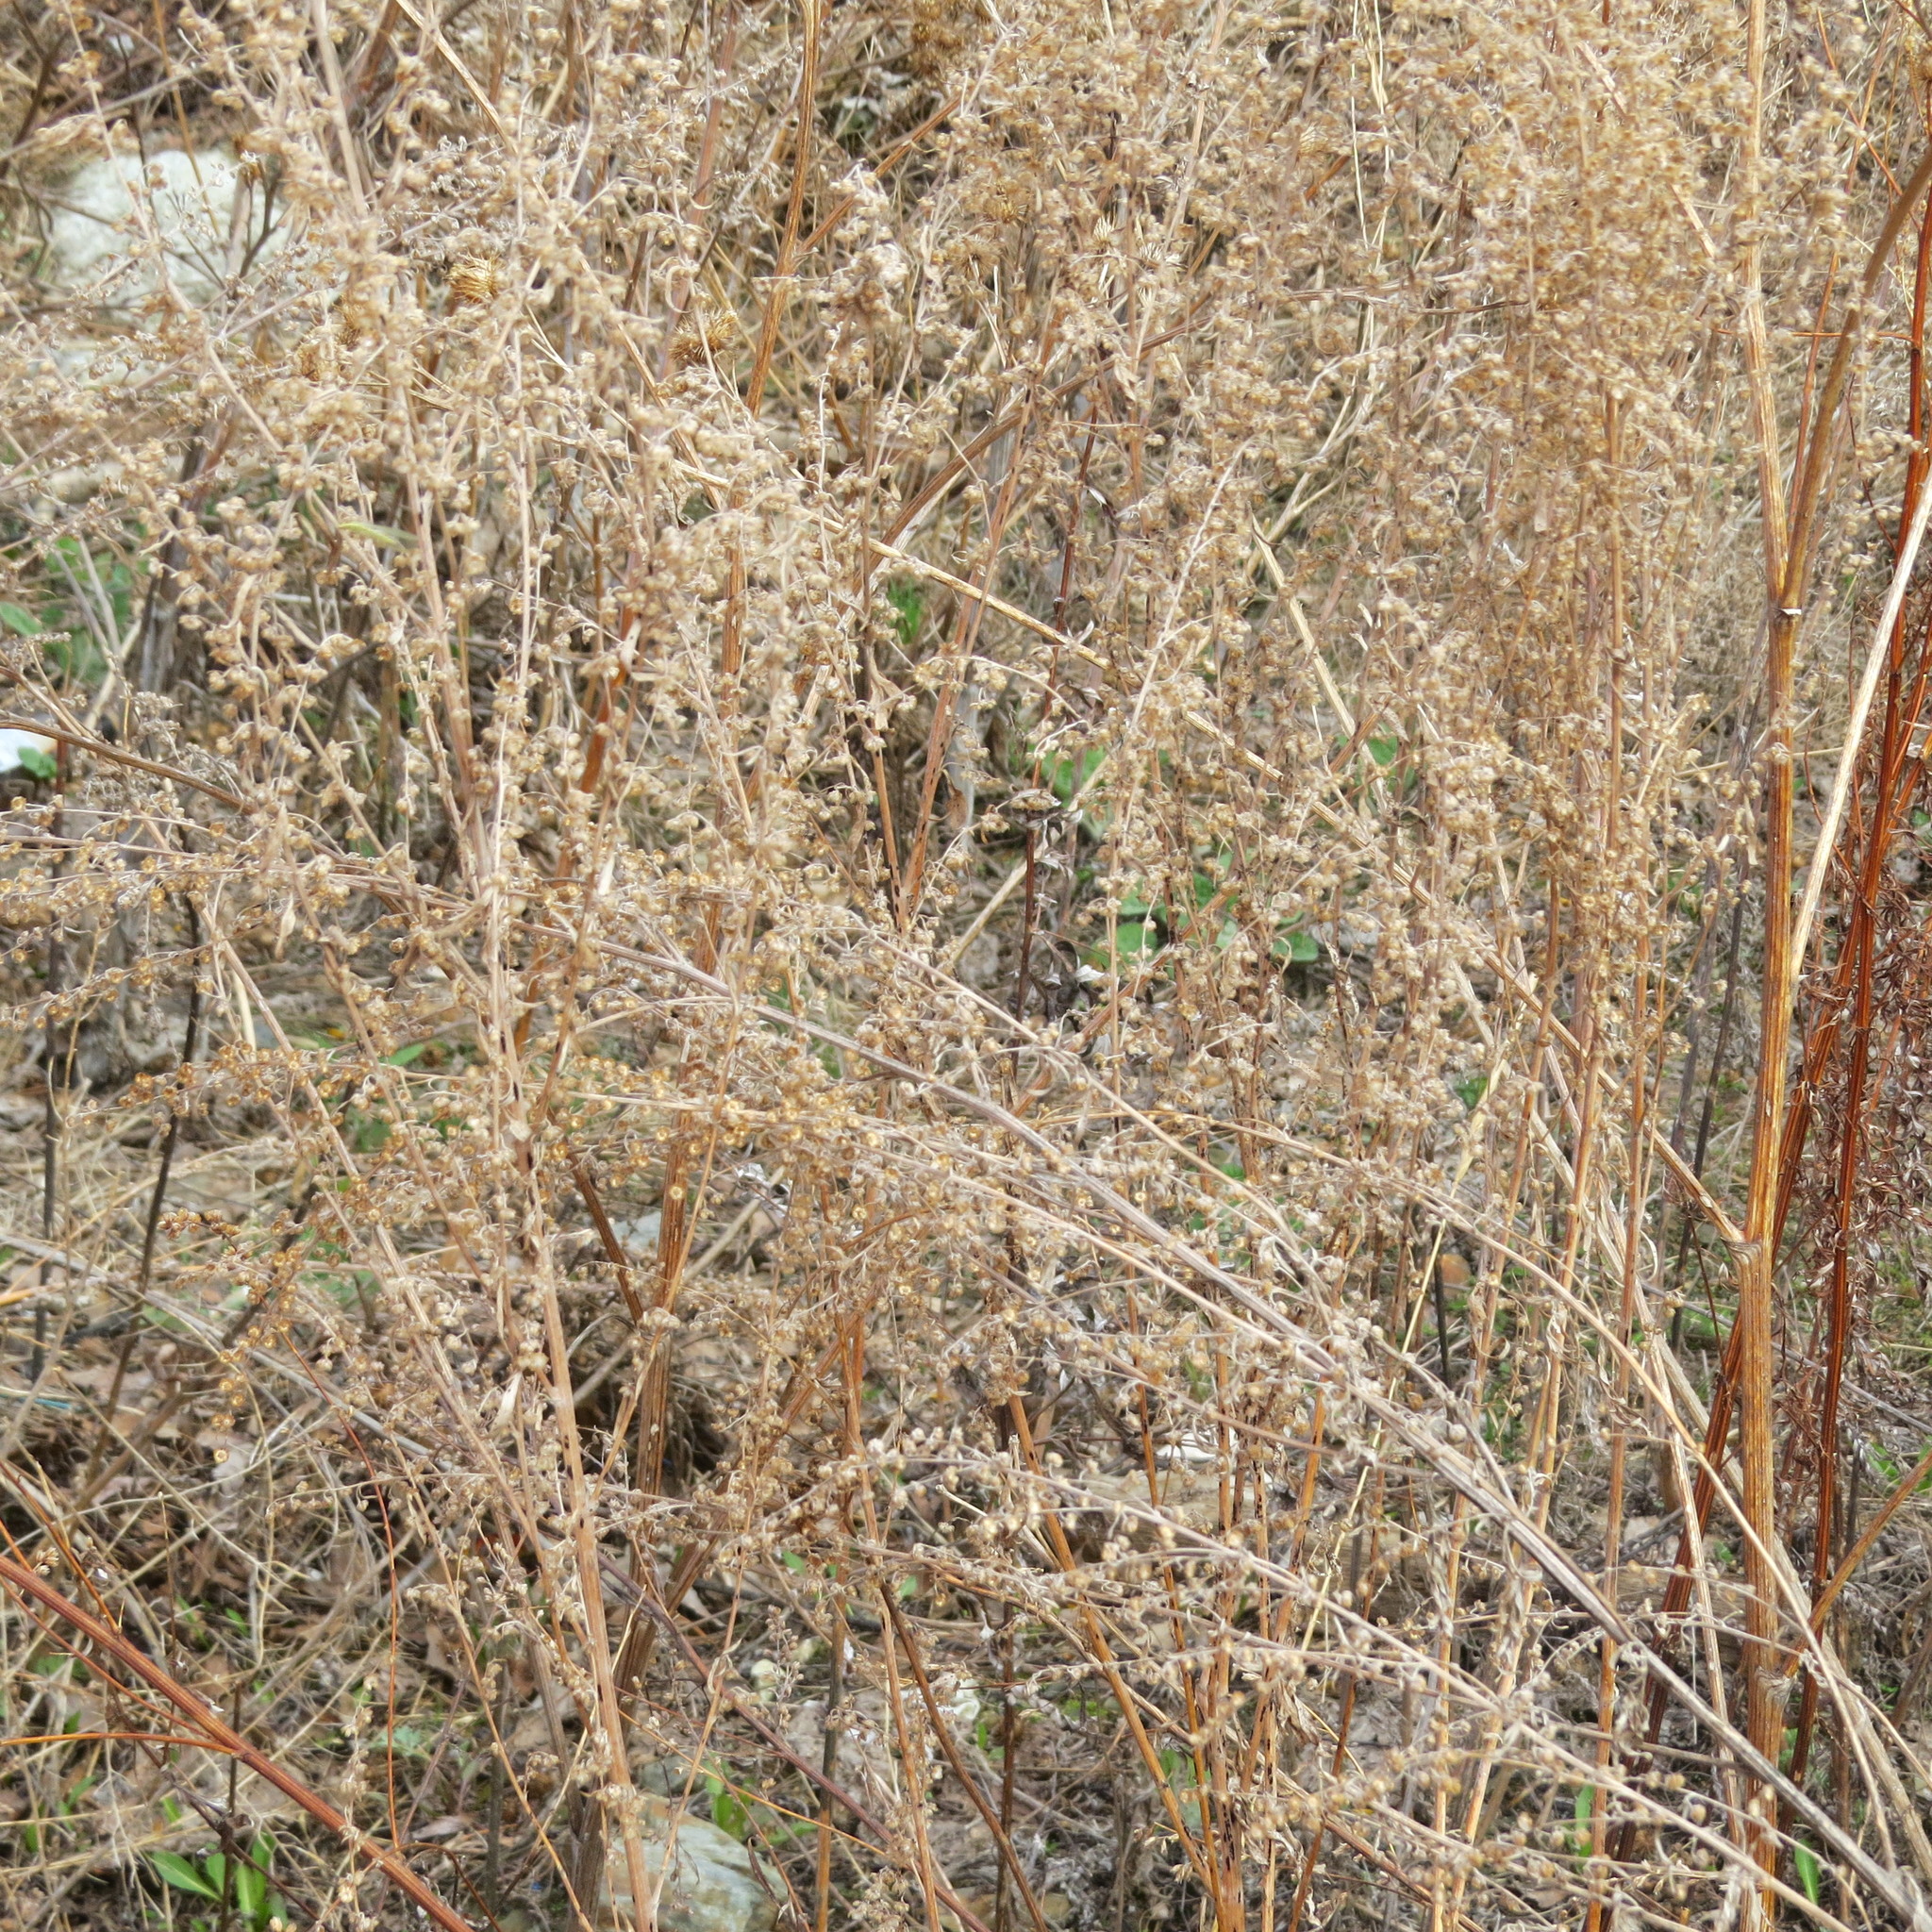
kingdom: Plantae
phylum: Tracheophyta
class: Magnoliopsida
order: Asterales
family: Asteraceae
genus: Artemisia
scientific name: Artemisia absinthium
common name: Wormwood
